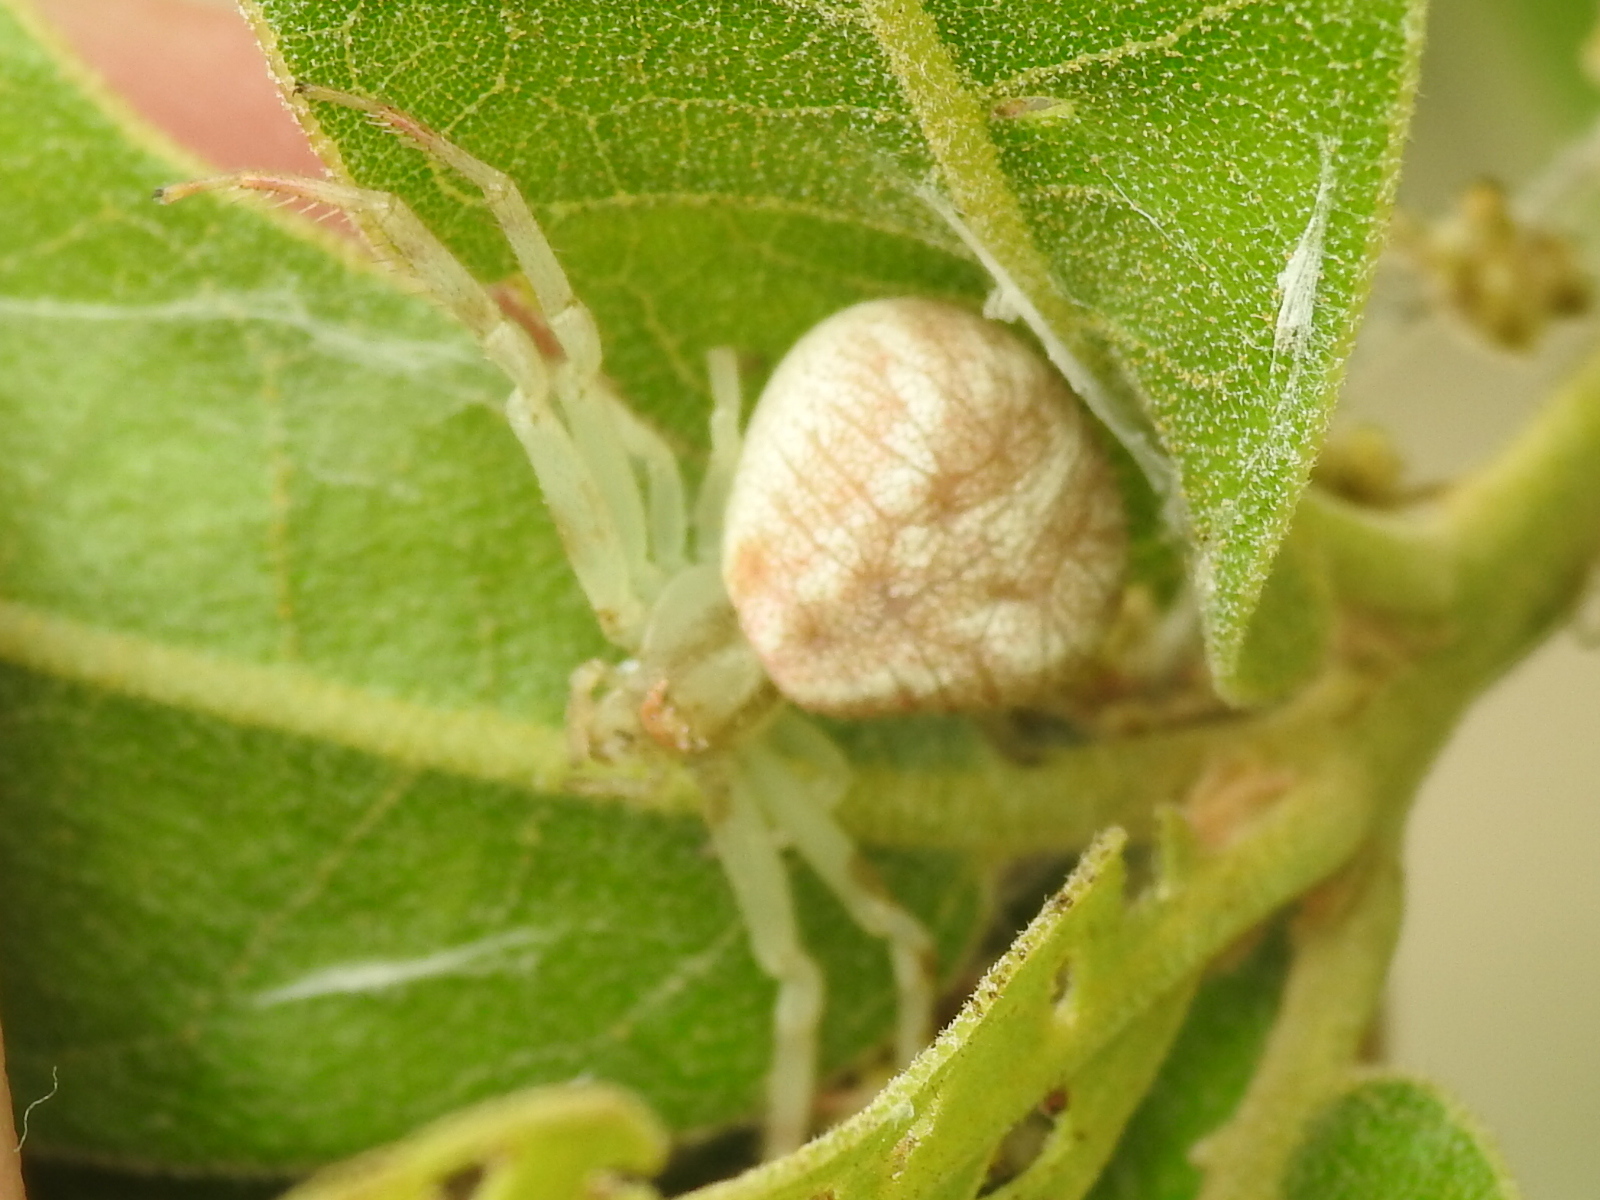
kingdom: Animalia
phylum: Arthropoda
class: Arachnida
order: Araneae
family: Thomisidae
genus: Mecaphesa
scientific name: Mecaphesa asperata
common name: Crab spiders
